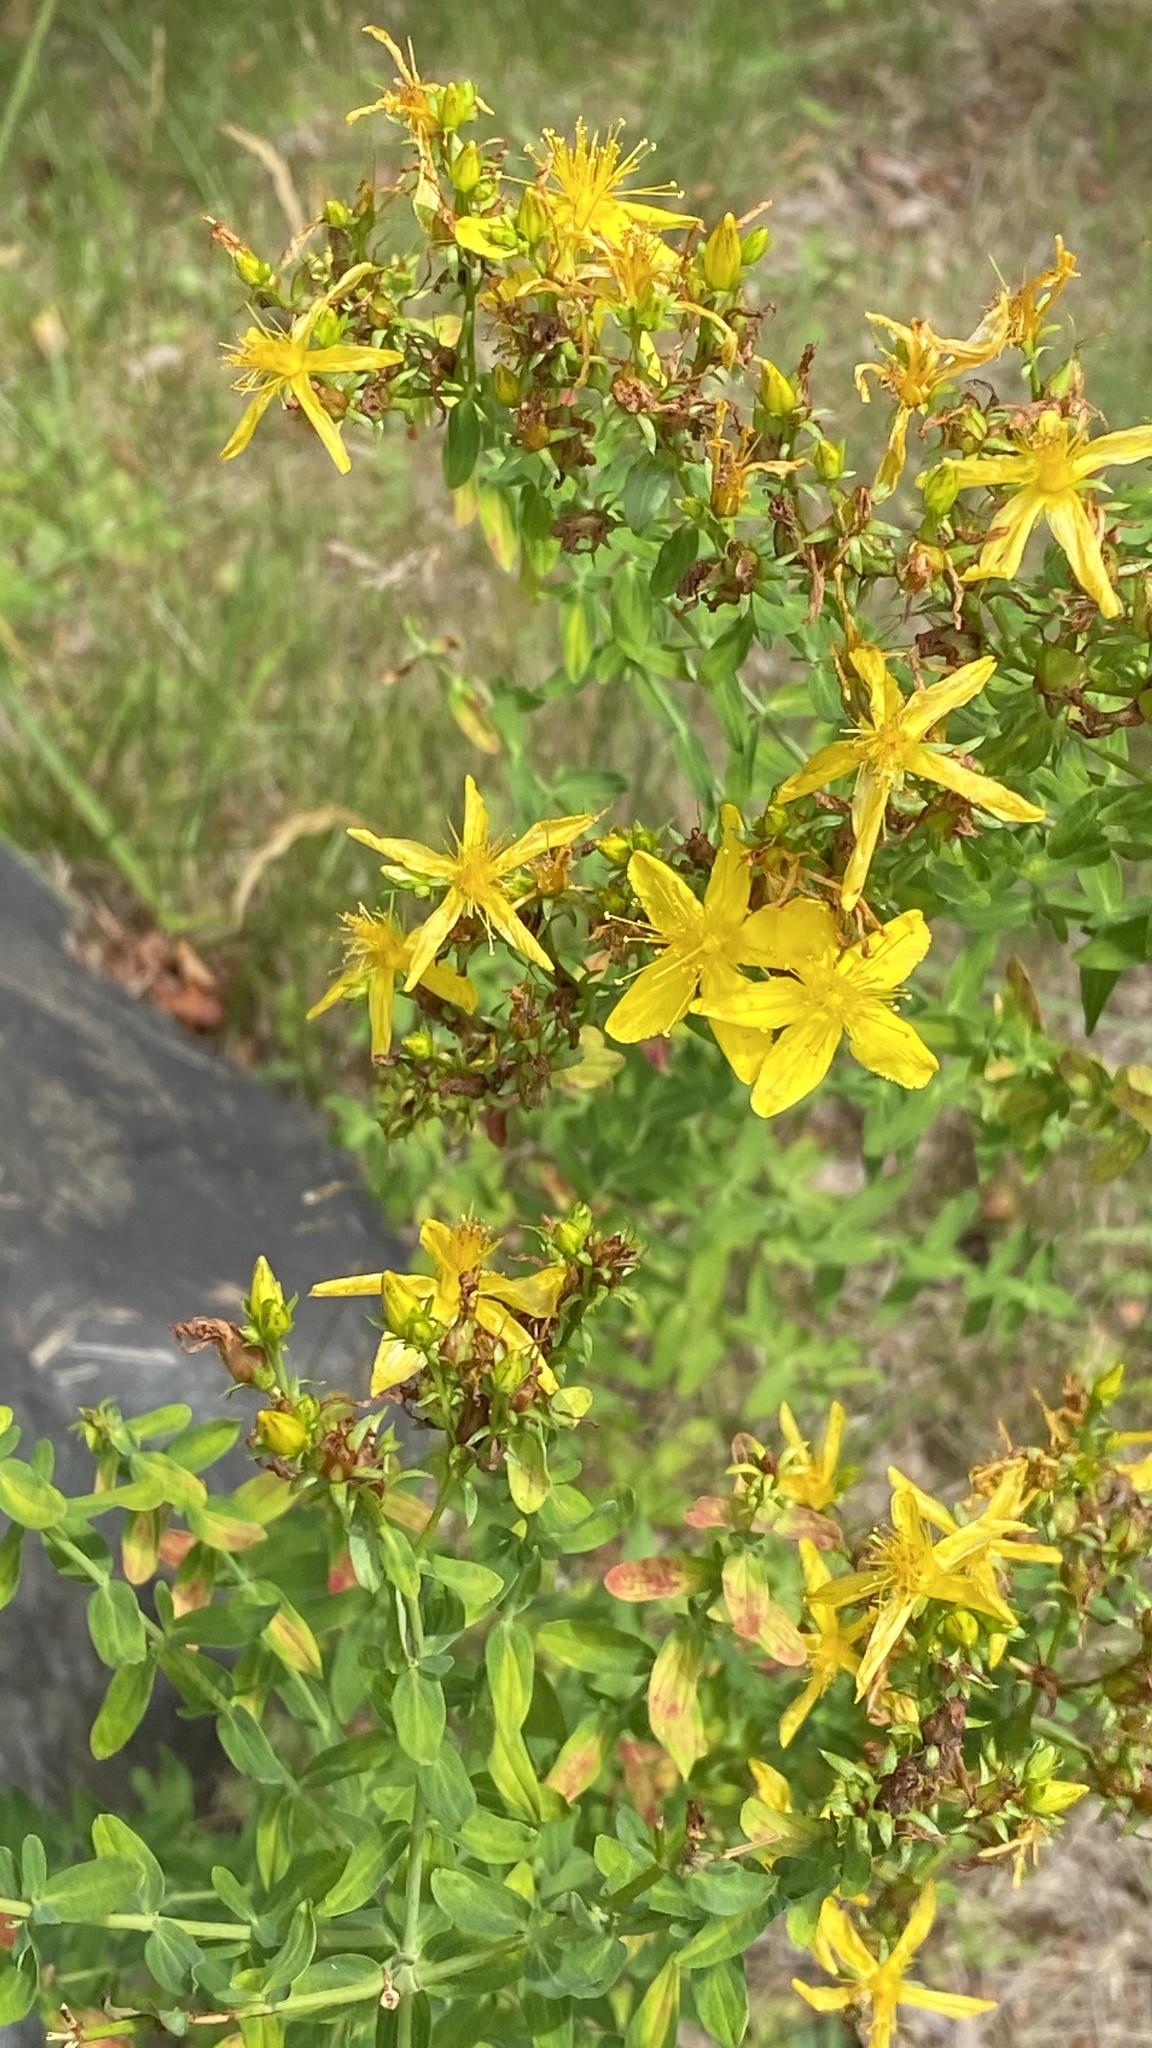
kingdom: Plantae
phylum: Tracheophyta
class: Magnoliopsida
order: Malpighiales
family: Hypericaceae
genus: Hypericum
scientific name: Hypericum perforatum
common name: Common st. johnswort
